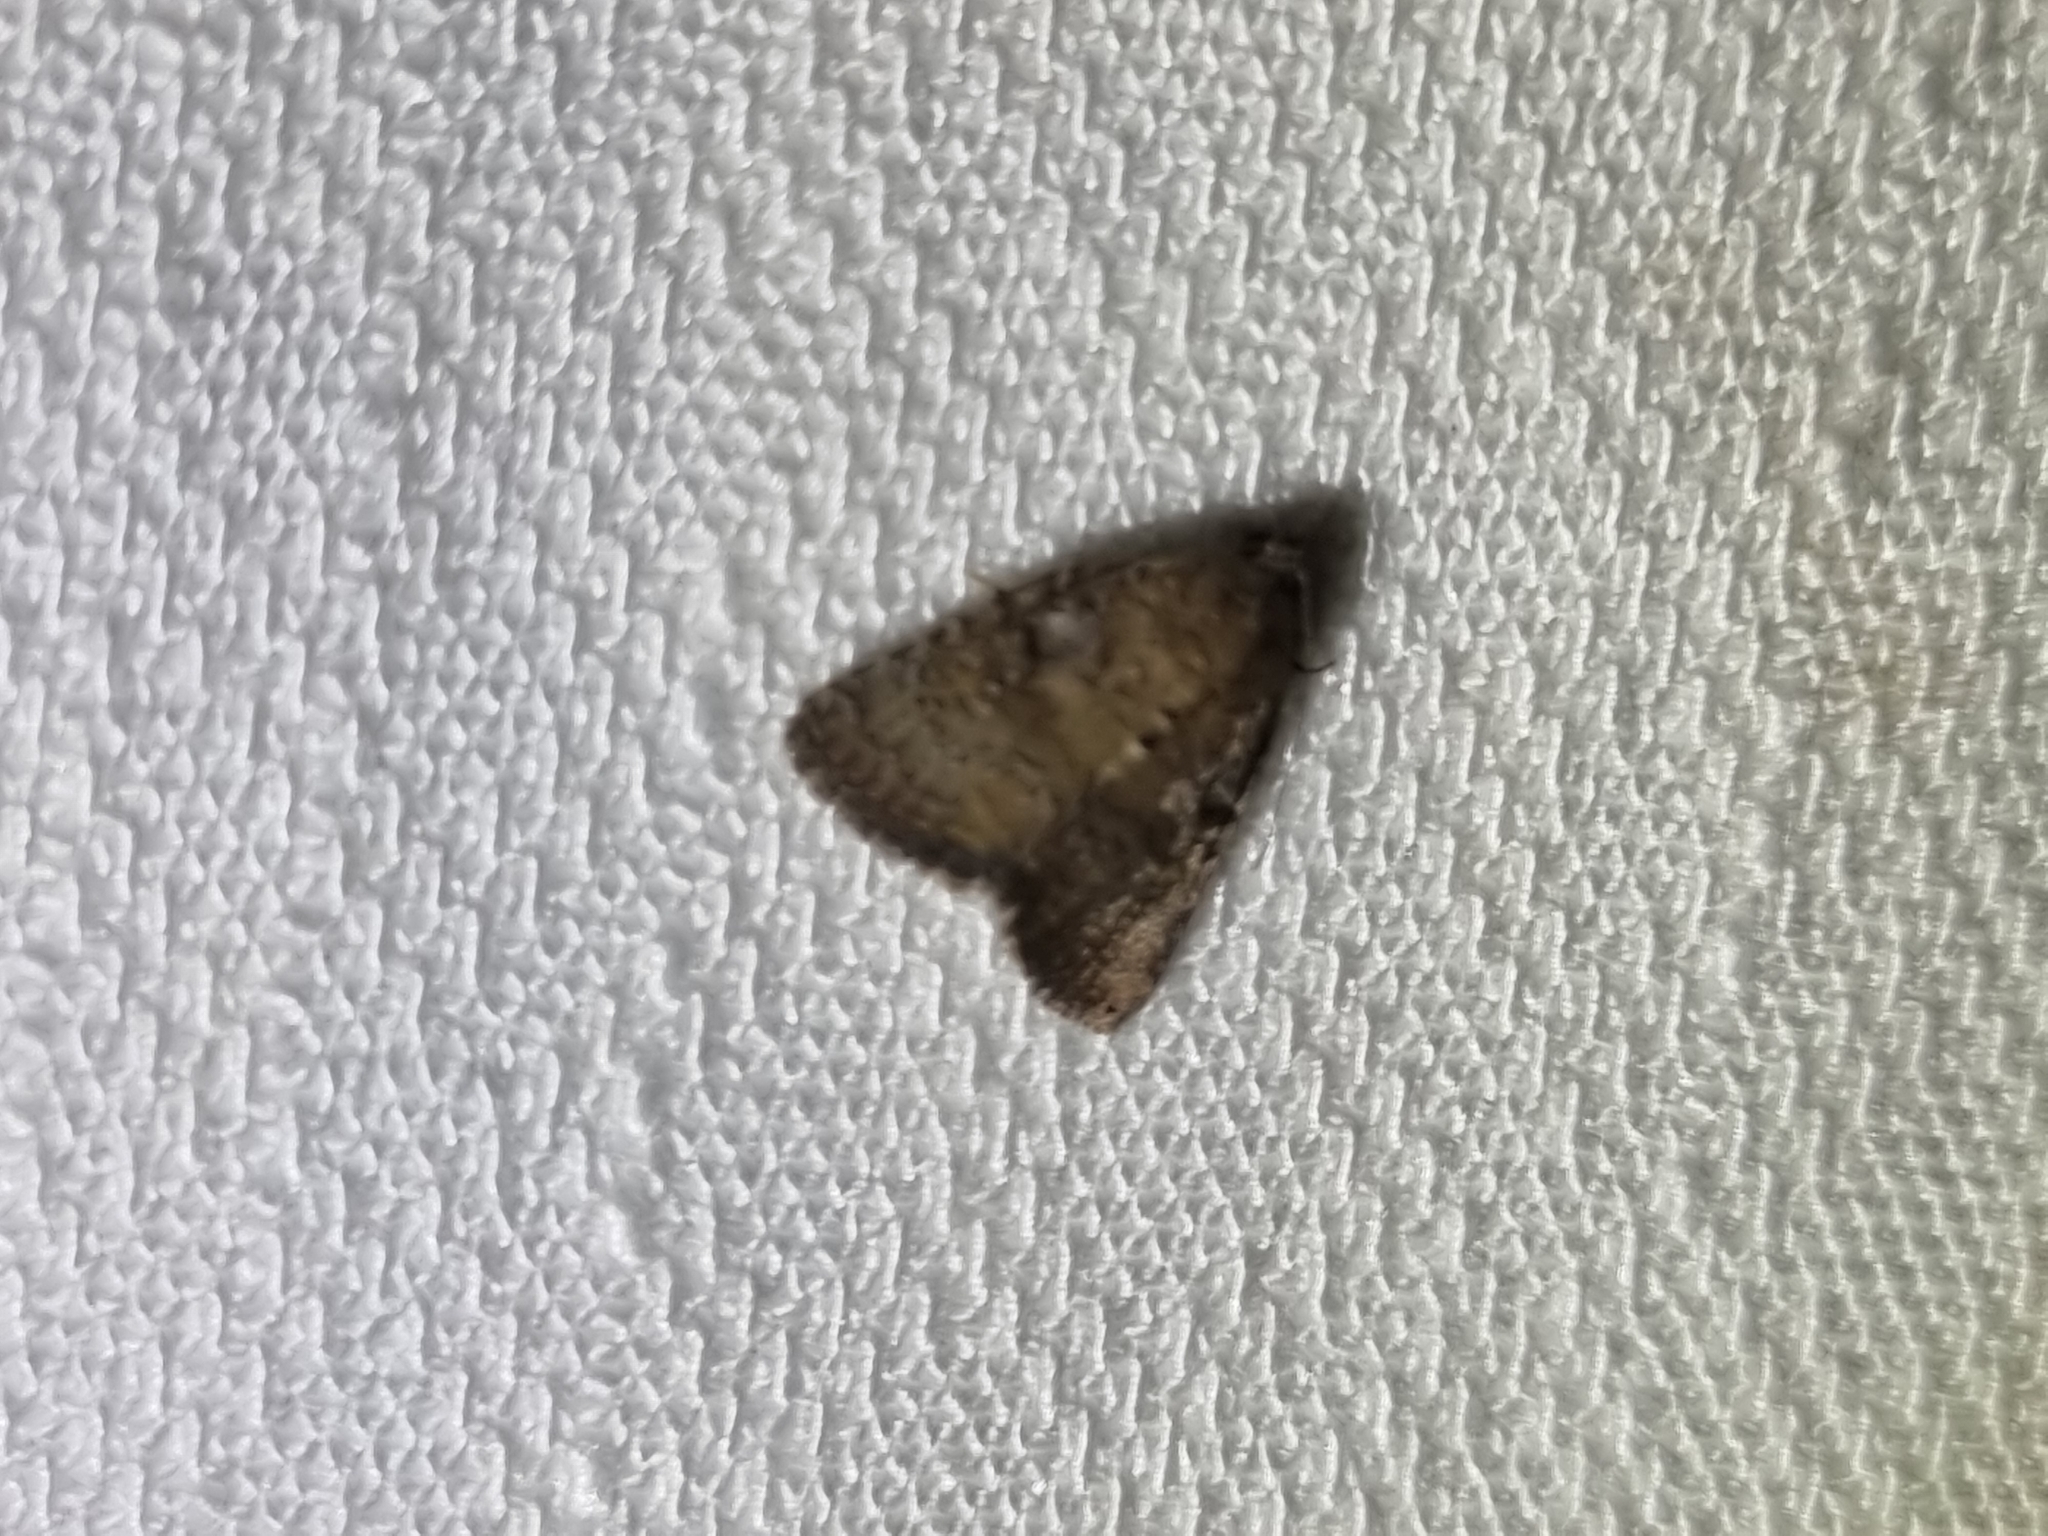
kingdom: Animalia
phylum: Arthropoda
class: Insecta
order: Lepidoptera
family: Noctuidae
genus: Amyna
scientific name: Amyna natalis
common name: Iiima moth
